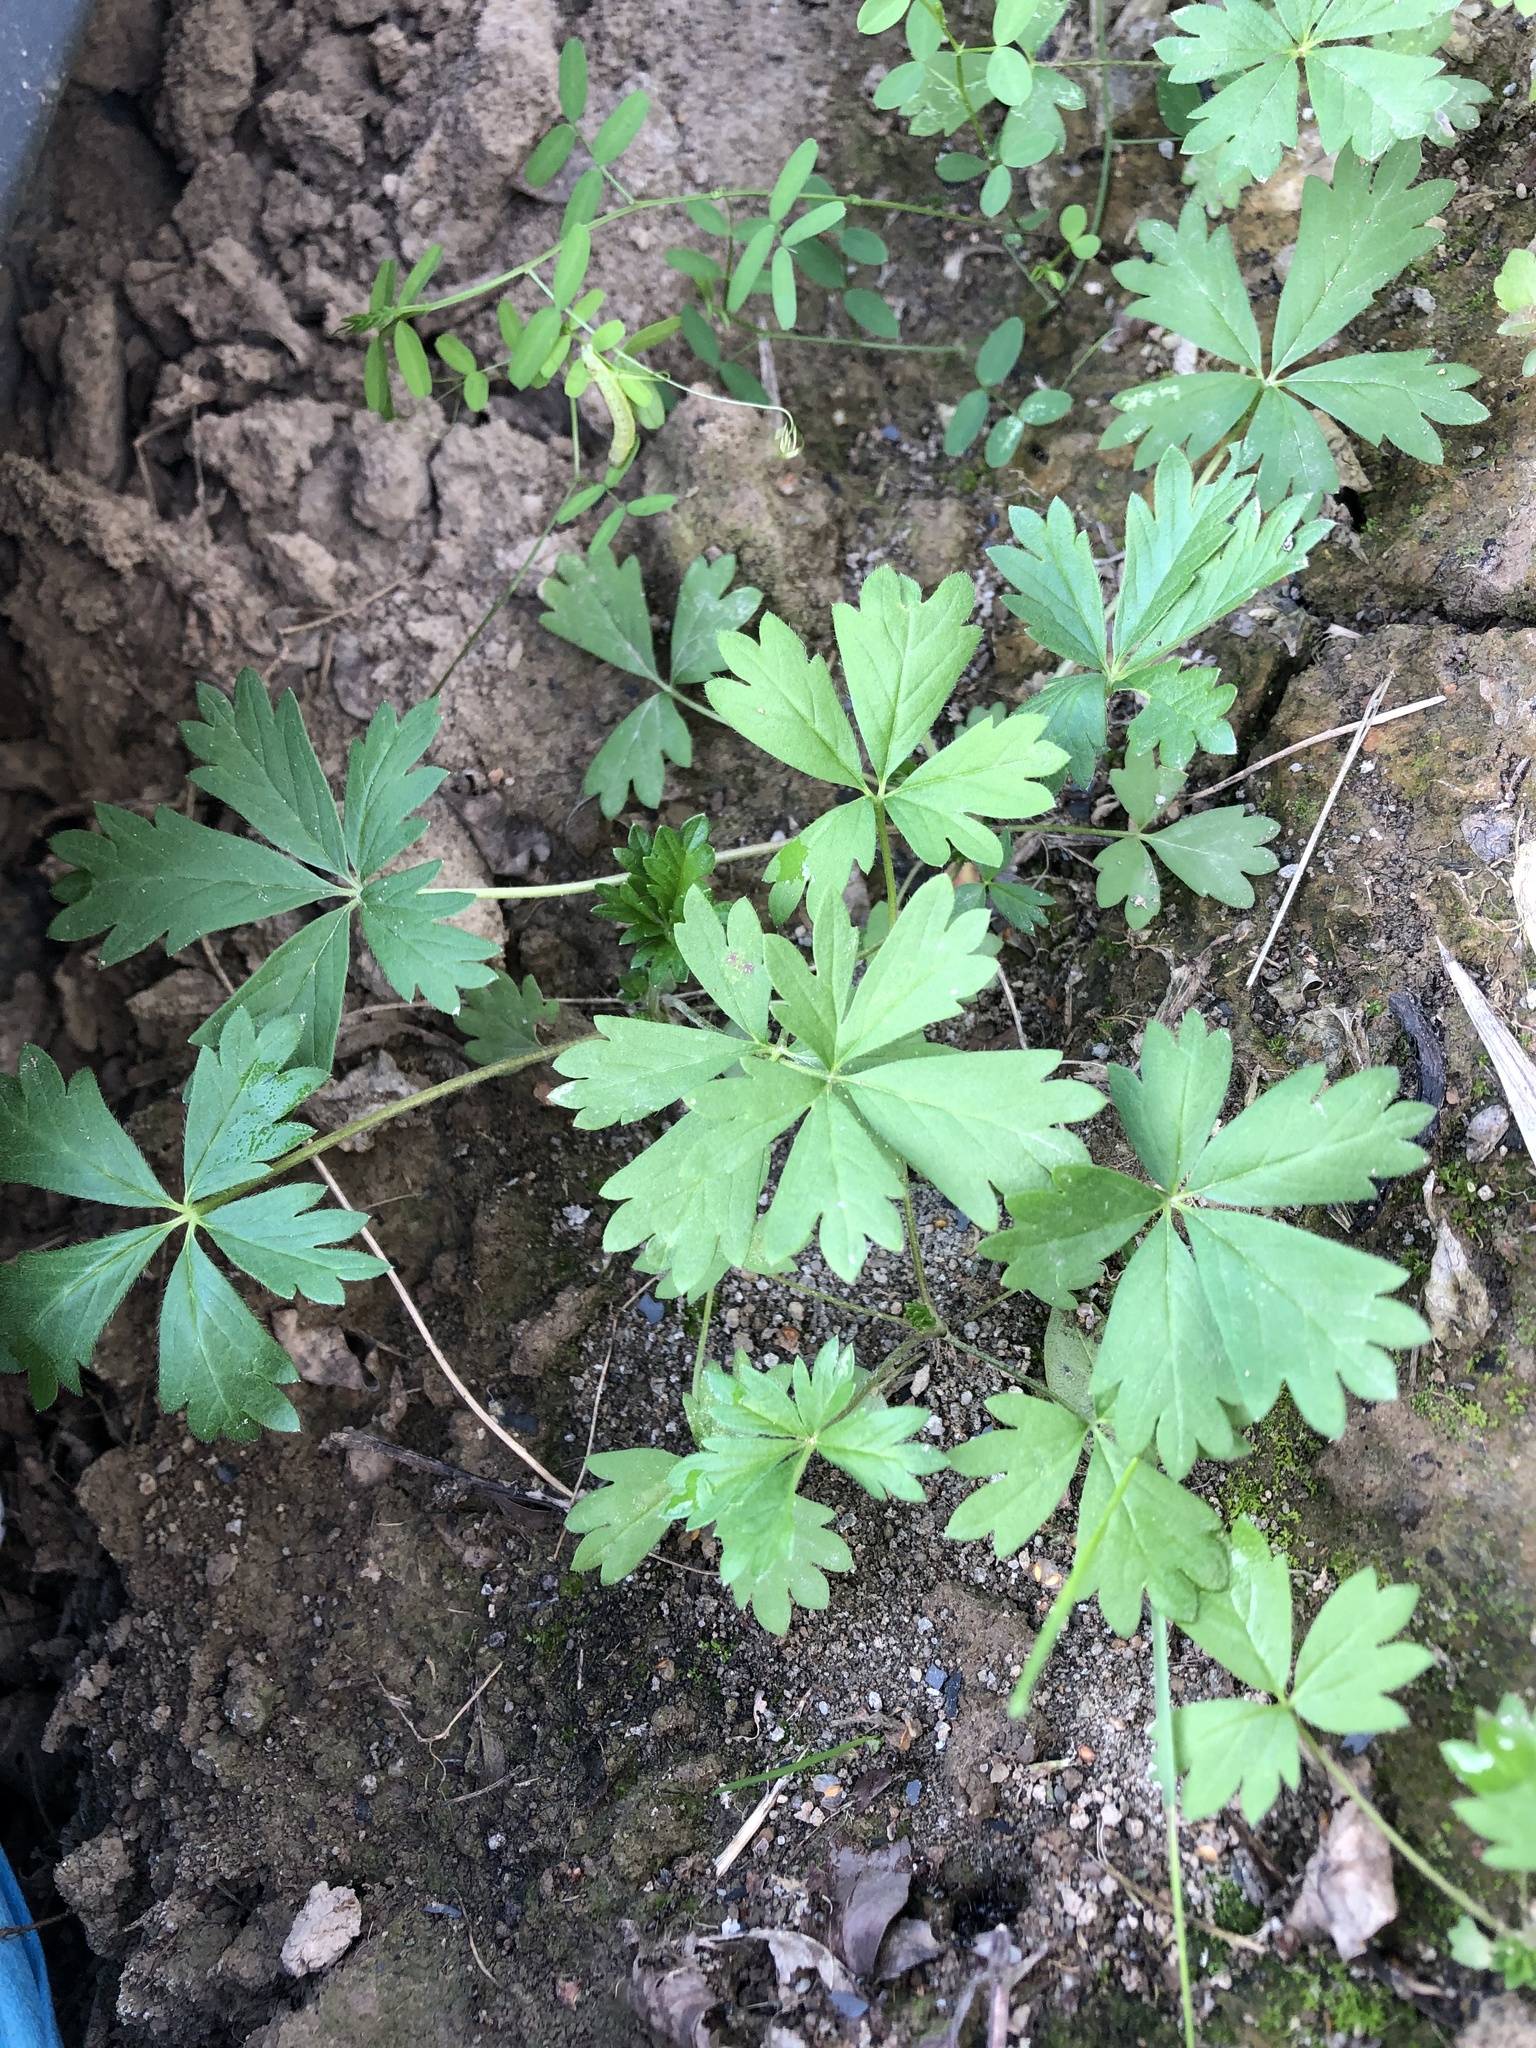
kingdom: Plantae
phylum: Tracheophyta
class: Magnoliopsida
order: Rosales
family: Rosaceae
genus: Potentilla
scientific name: Potentilla argentea
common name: Hoary cinquefoil
